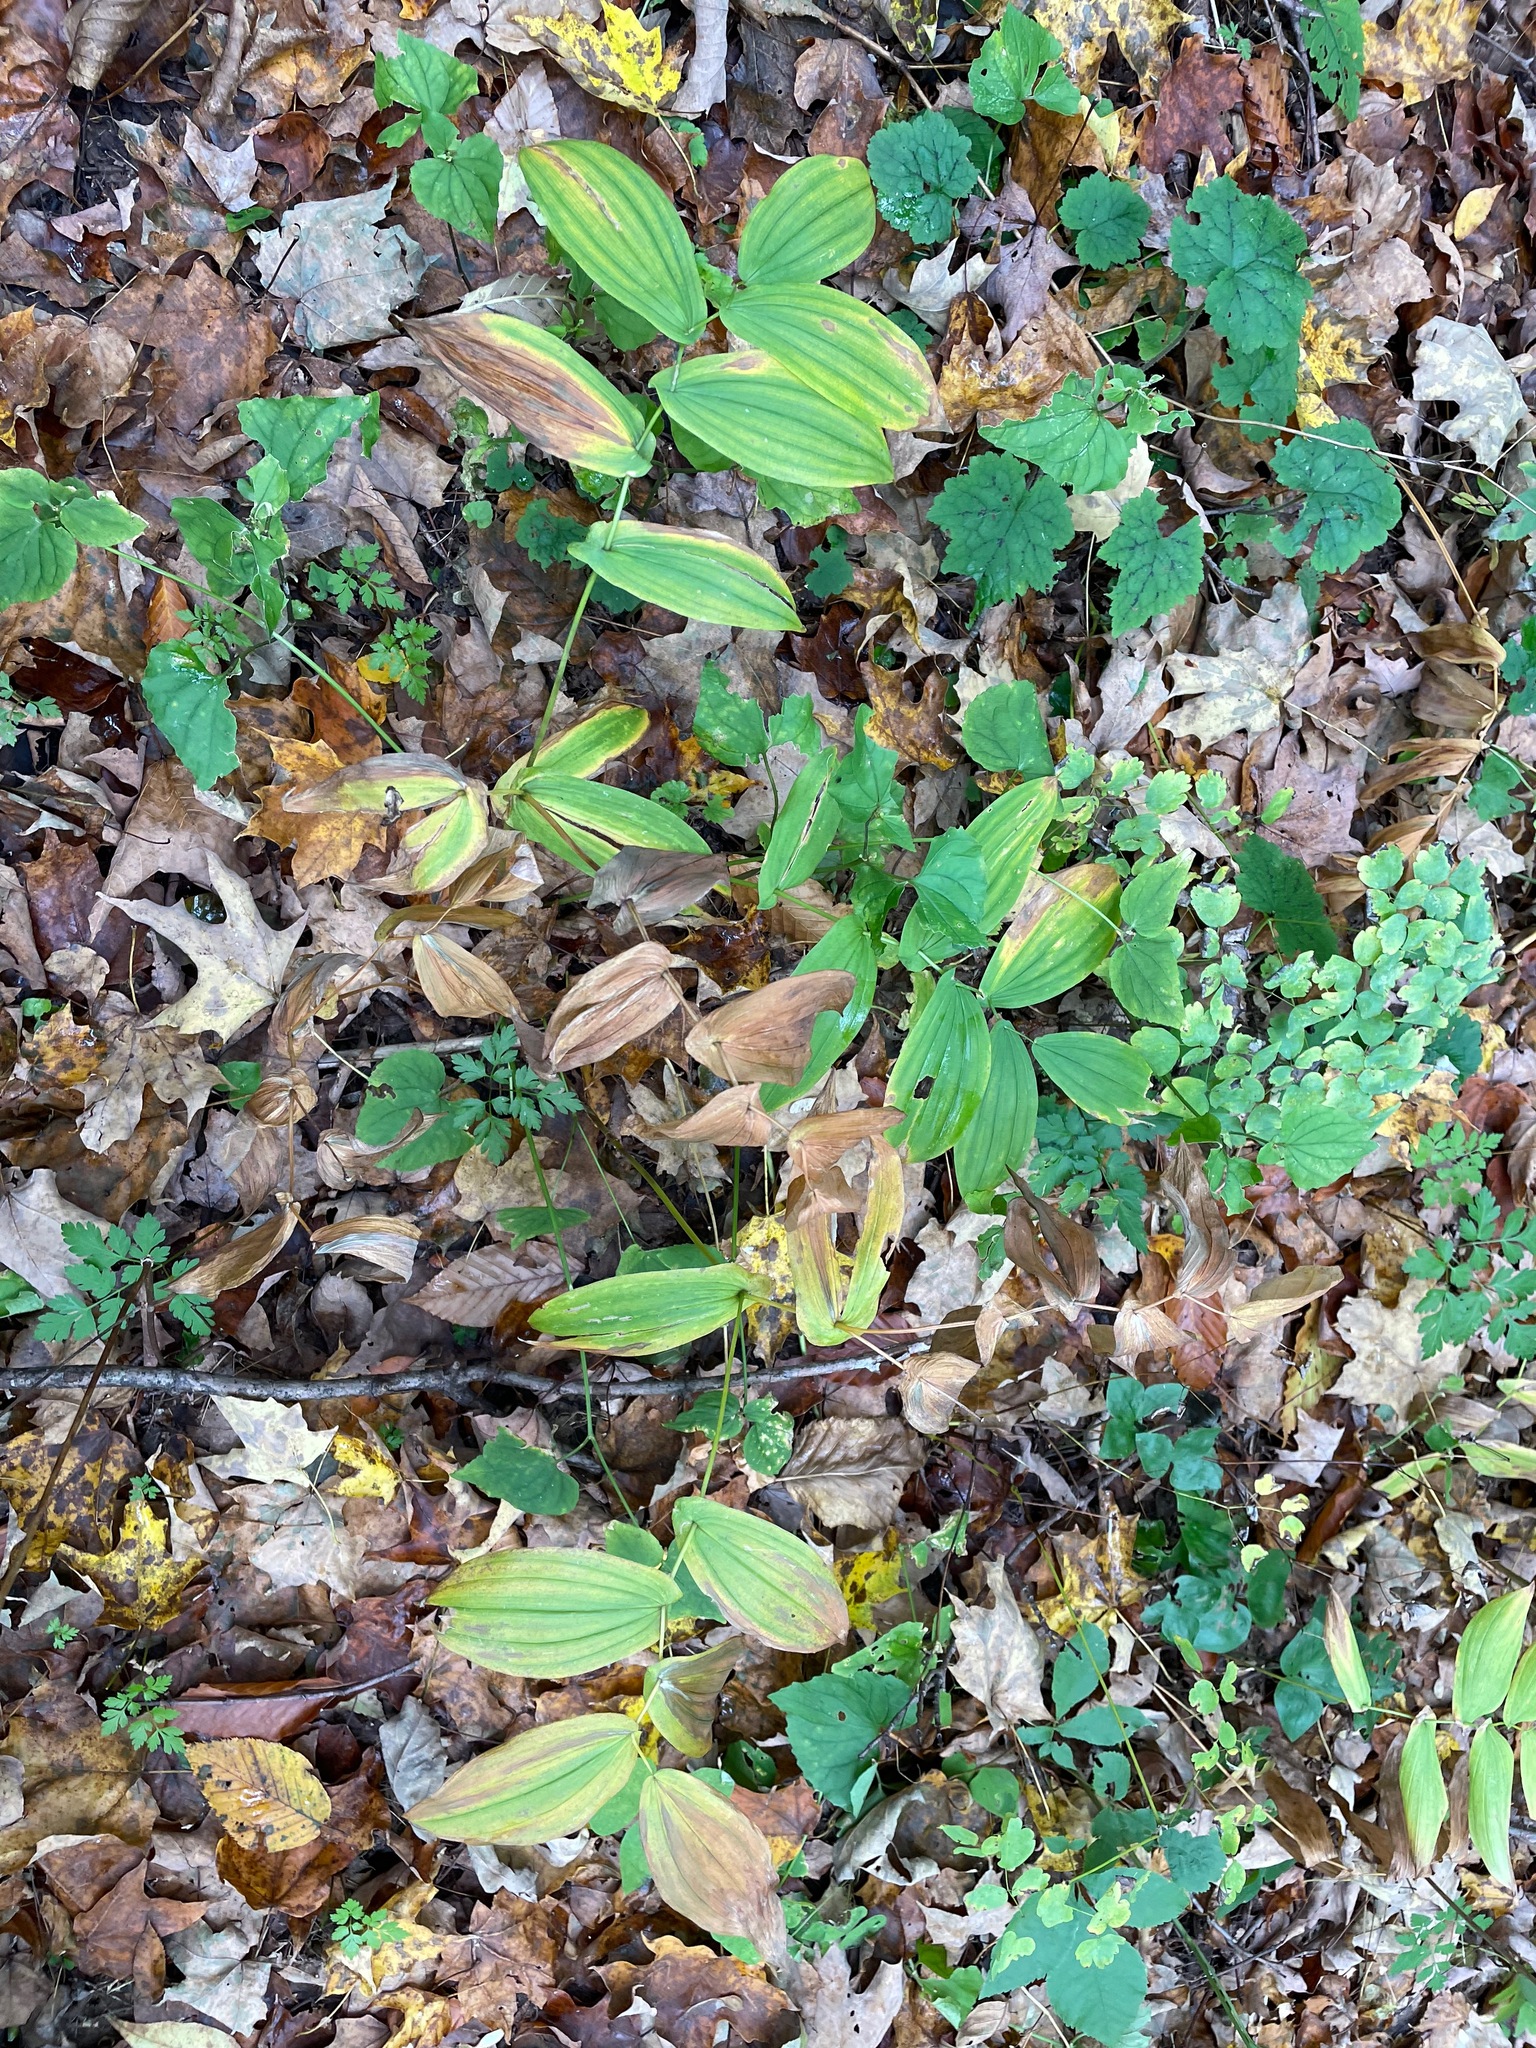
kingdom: Plantae
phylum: Tracheophyta
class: Liliopsida
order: Liliales
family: Colchicaceae
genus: Uvularia
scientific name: Uvularia grandiflora
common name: Bellwort
